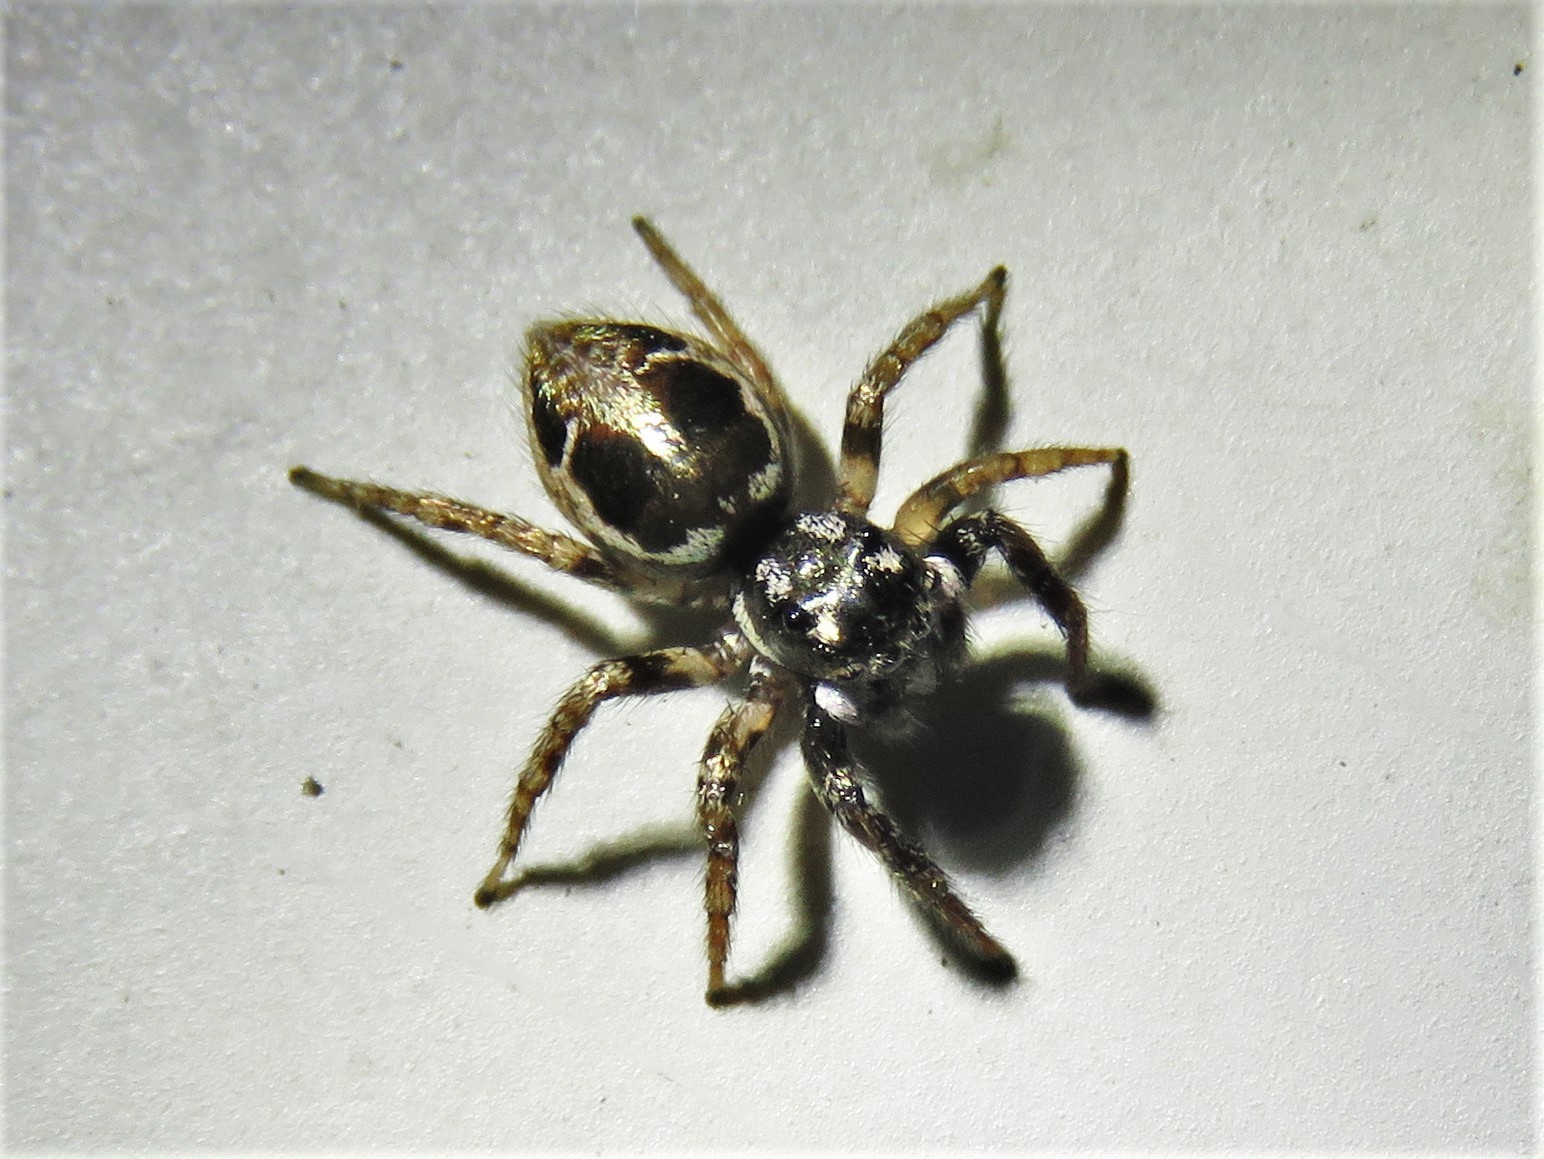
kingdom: Animalia
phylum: Arthropoda
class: Arachnida
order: Araneae
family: Salticidae
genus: Anasaitis
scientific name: Anasaitis canosa
